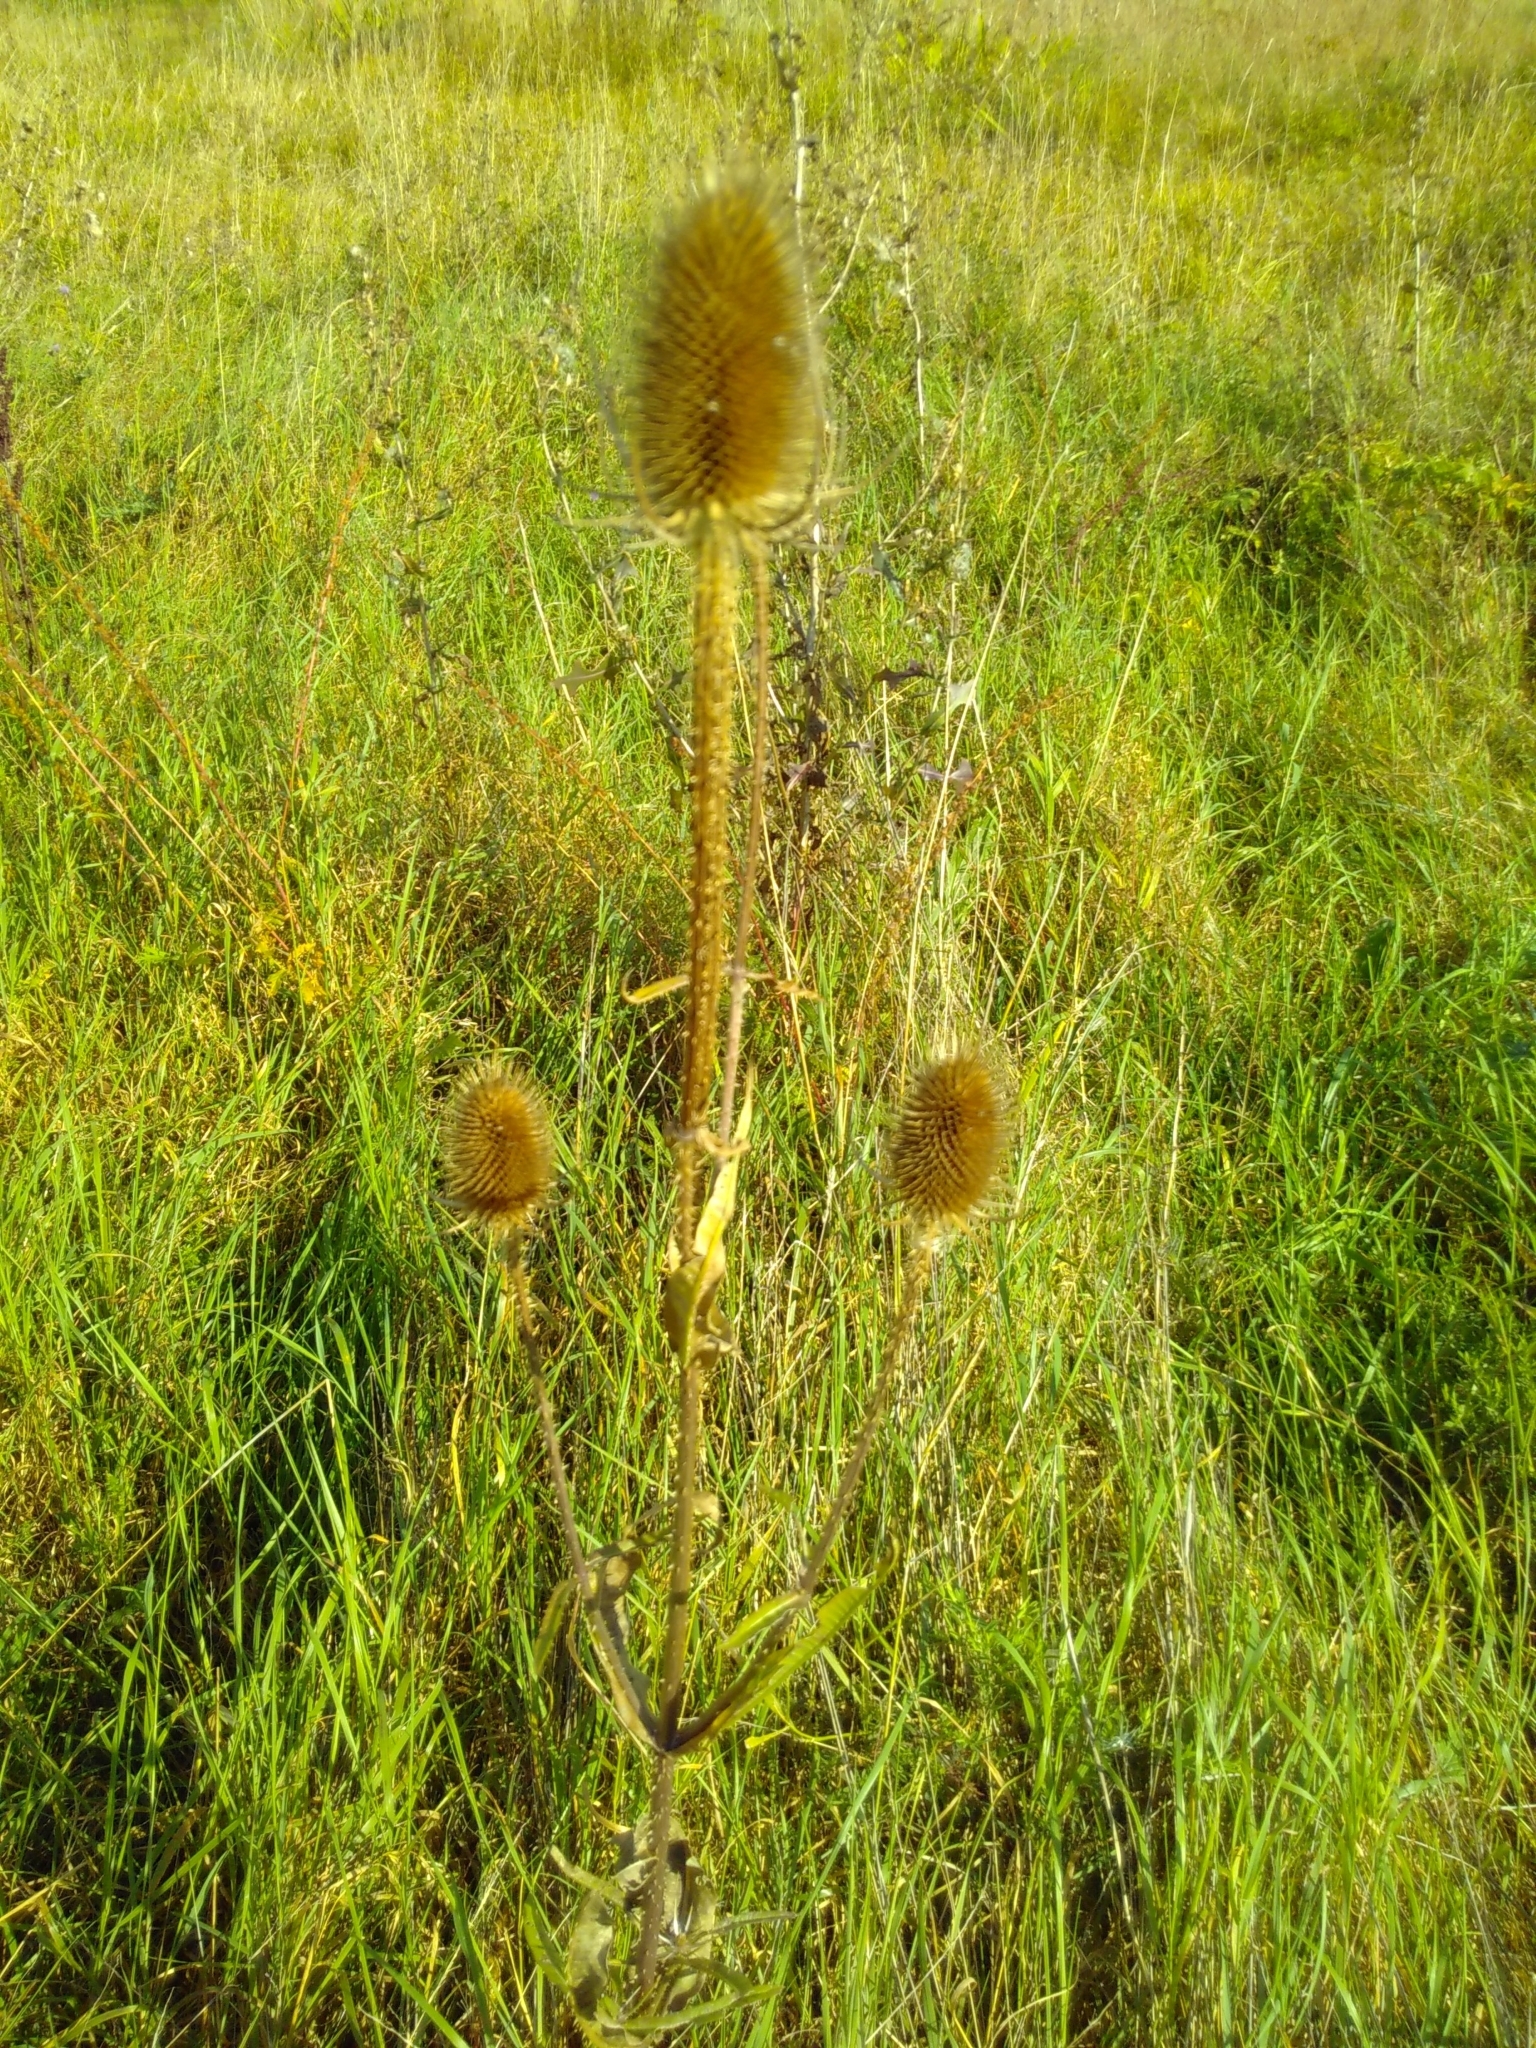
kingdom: Plantae
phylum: Tracheophyta
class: Magnoliopsida
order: Dipsacales
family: Caprifoliaceae
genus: Dipsacus
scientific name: Dipsacus fullonum
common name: Teasel
